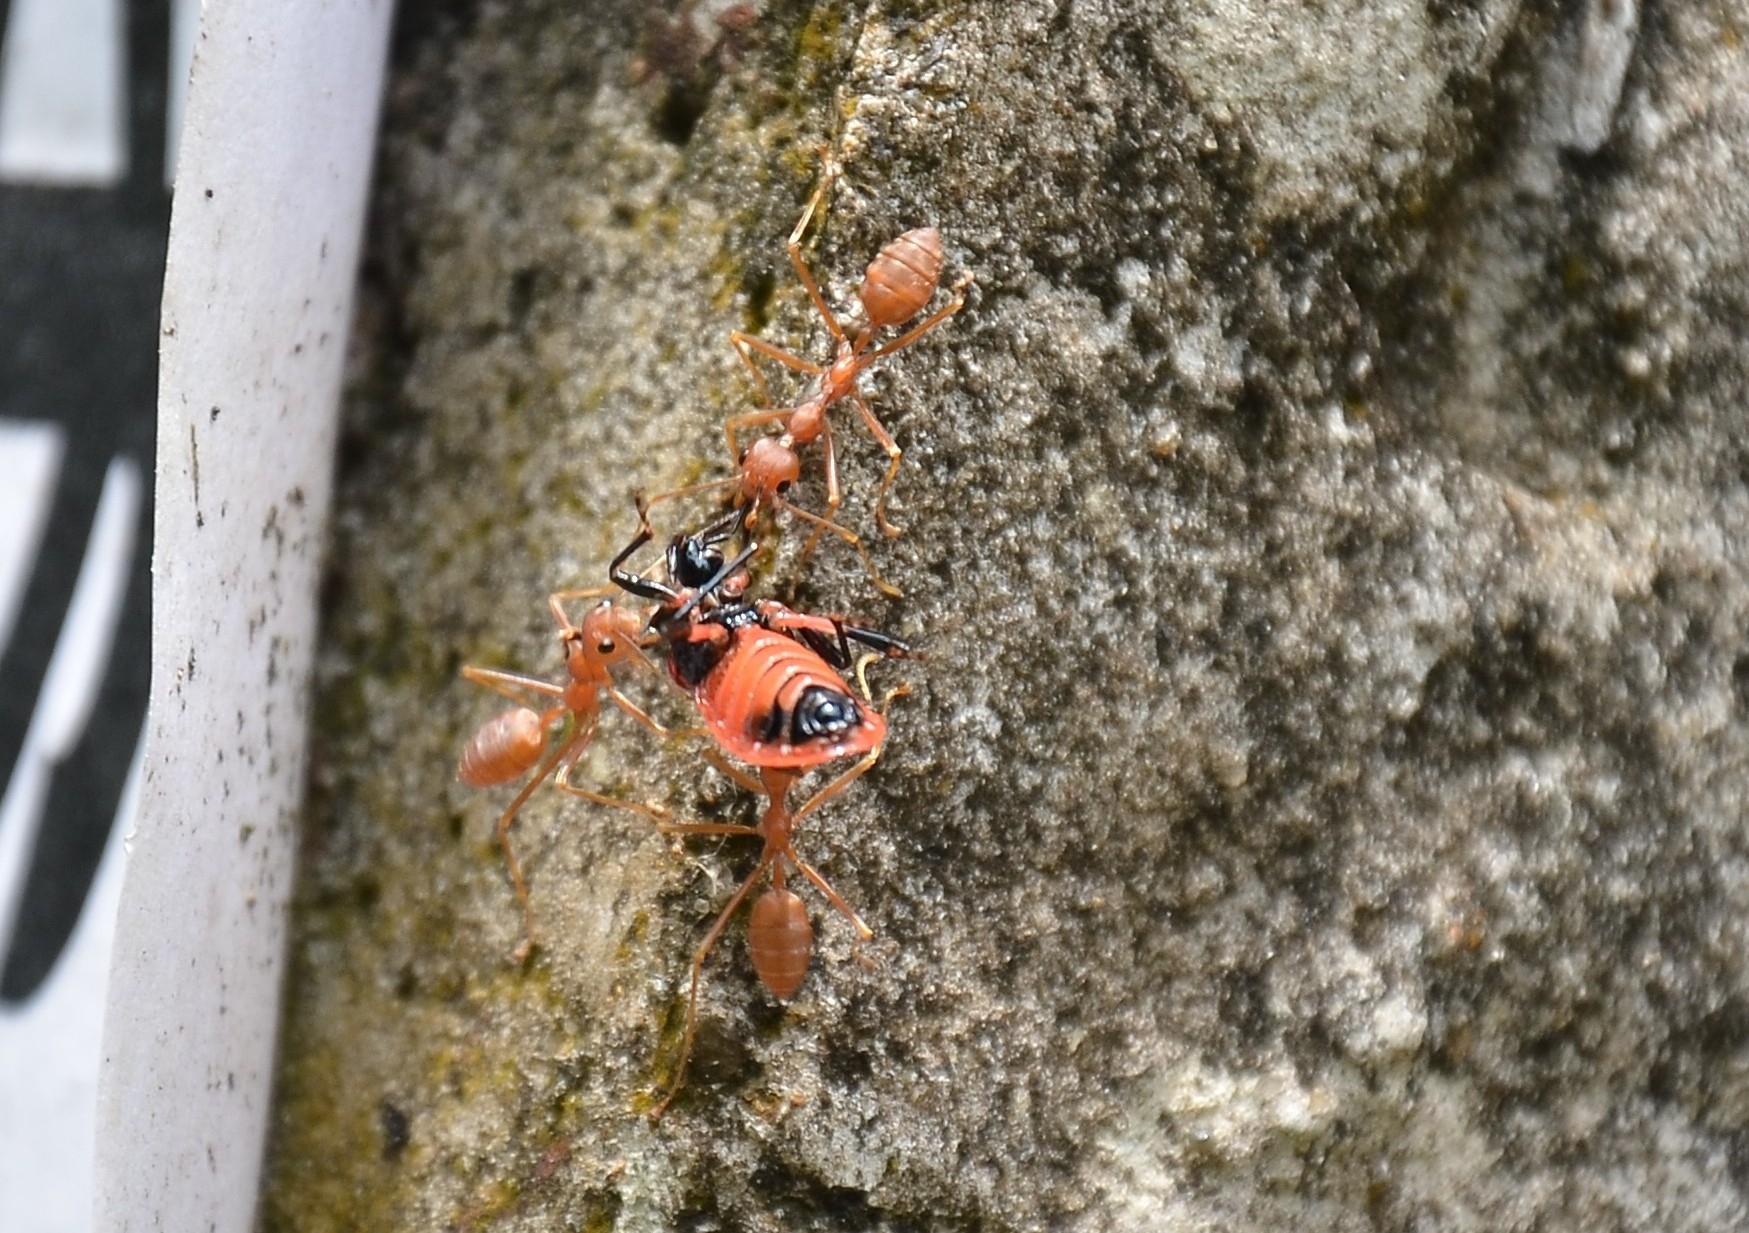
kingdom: Animalia
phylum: Arthropoda
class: Insecta
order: Hymenoptera
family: Formicidae
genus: Oecophylla
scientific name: Oecophylla smaragdina
